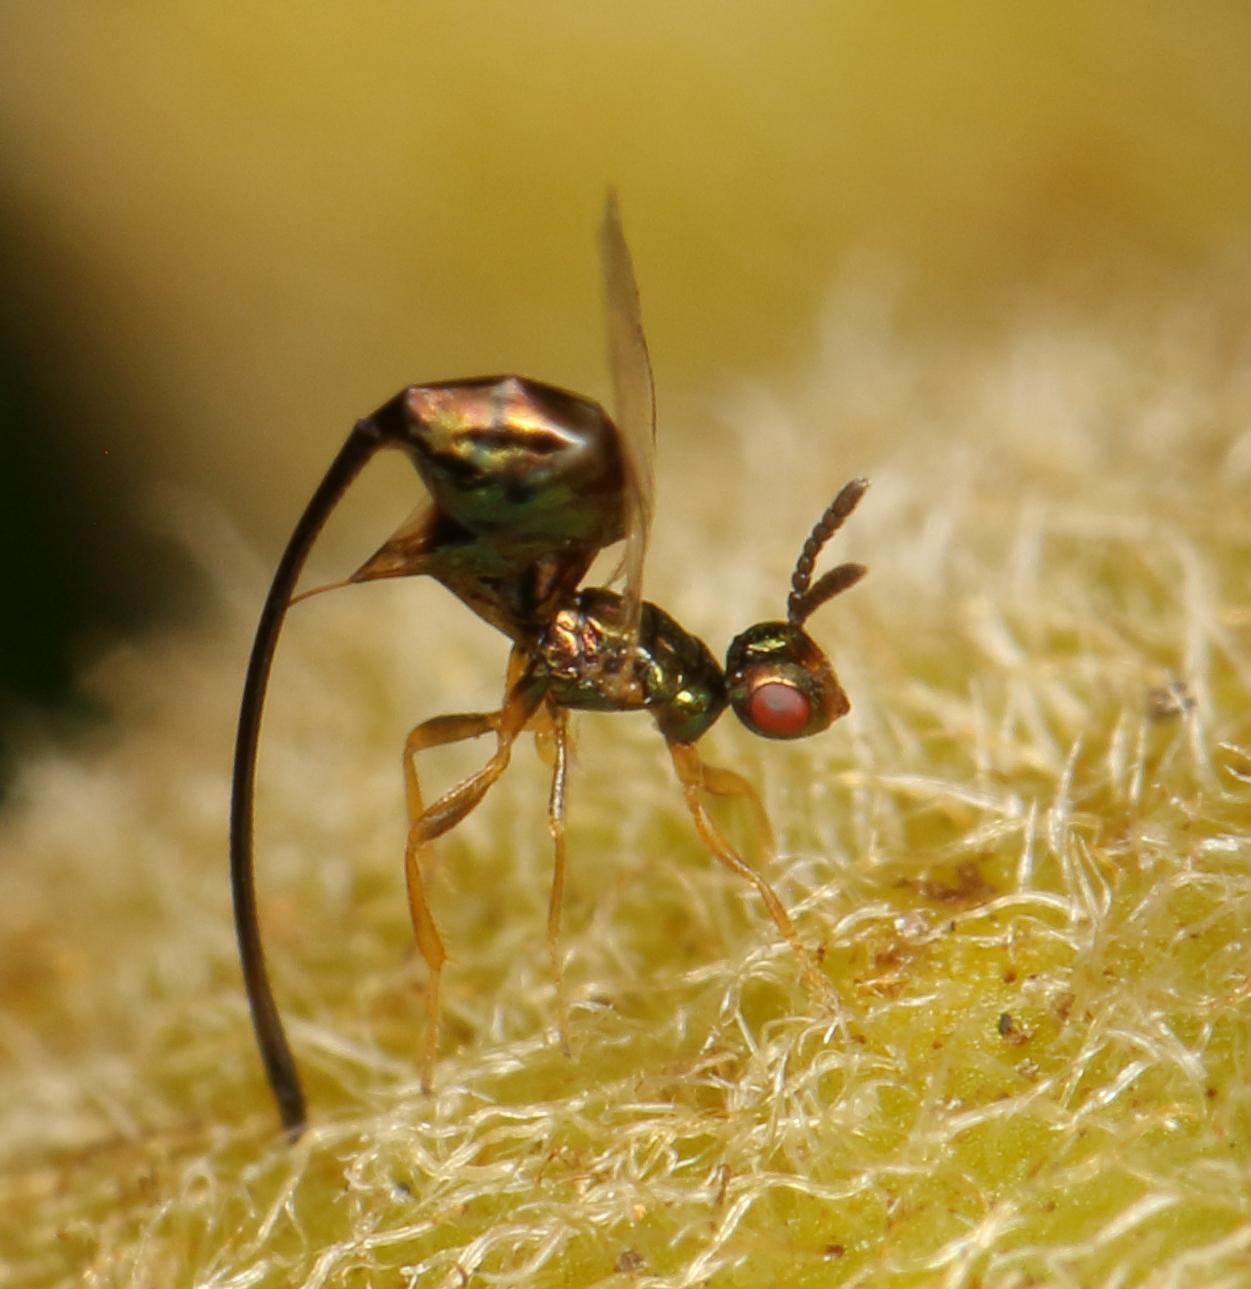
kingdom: Animalia
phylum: Arthropoda
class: Insecta
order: Hymenoptera
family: Agaonidae
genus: Sycoscapter
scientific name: Sycoscapter cornutus
